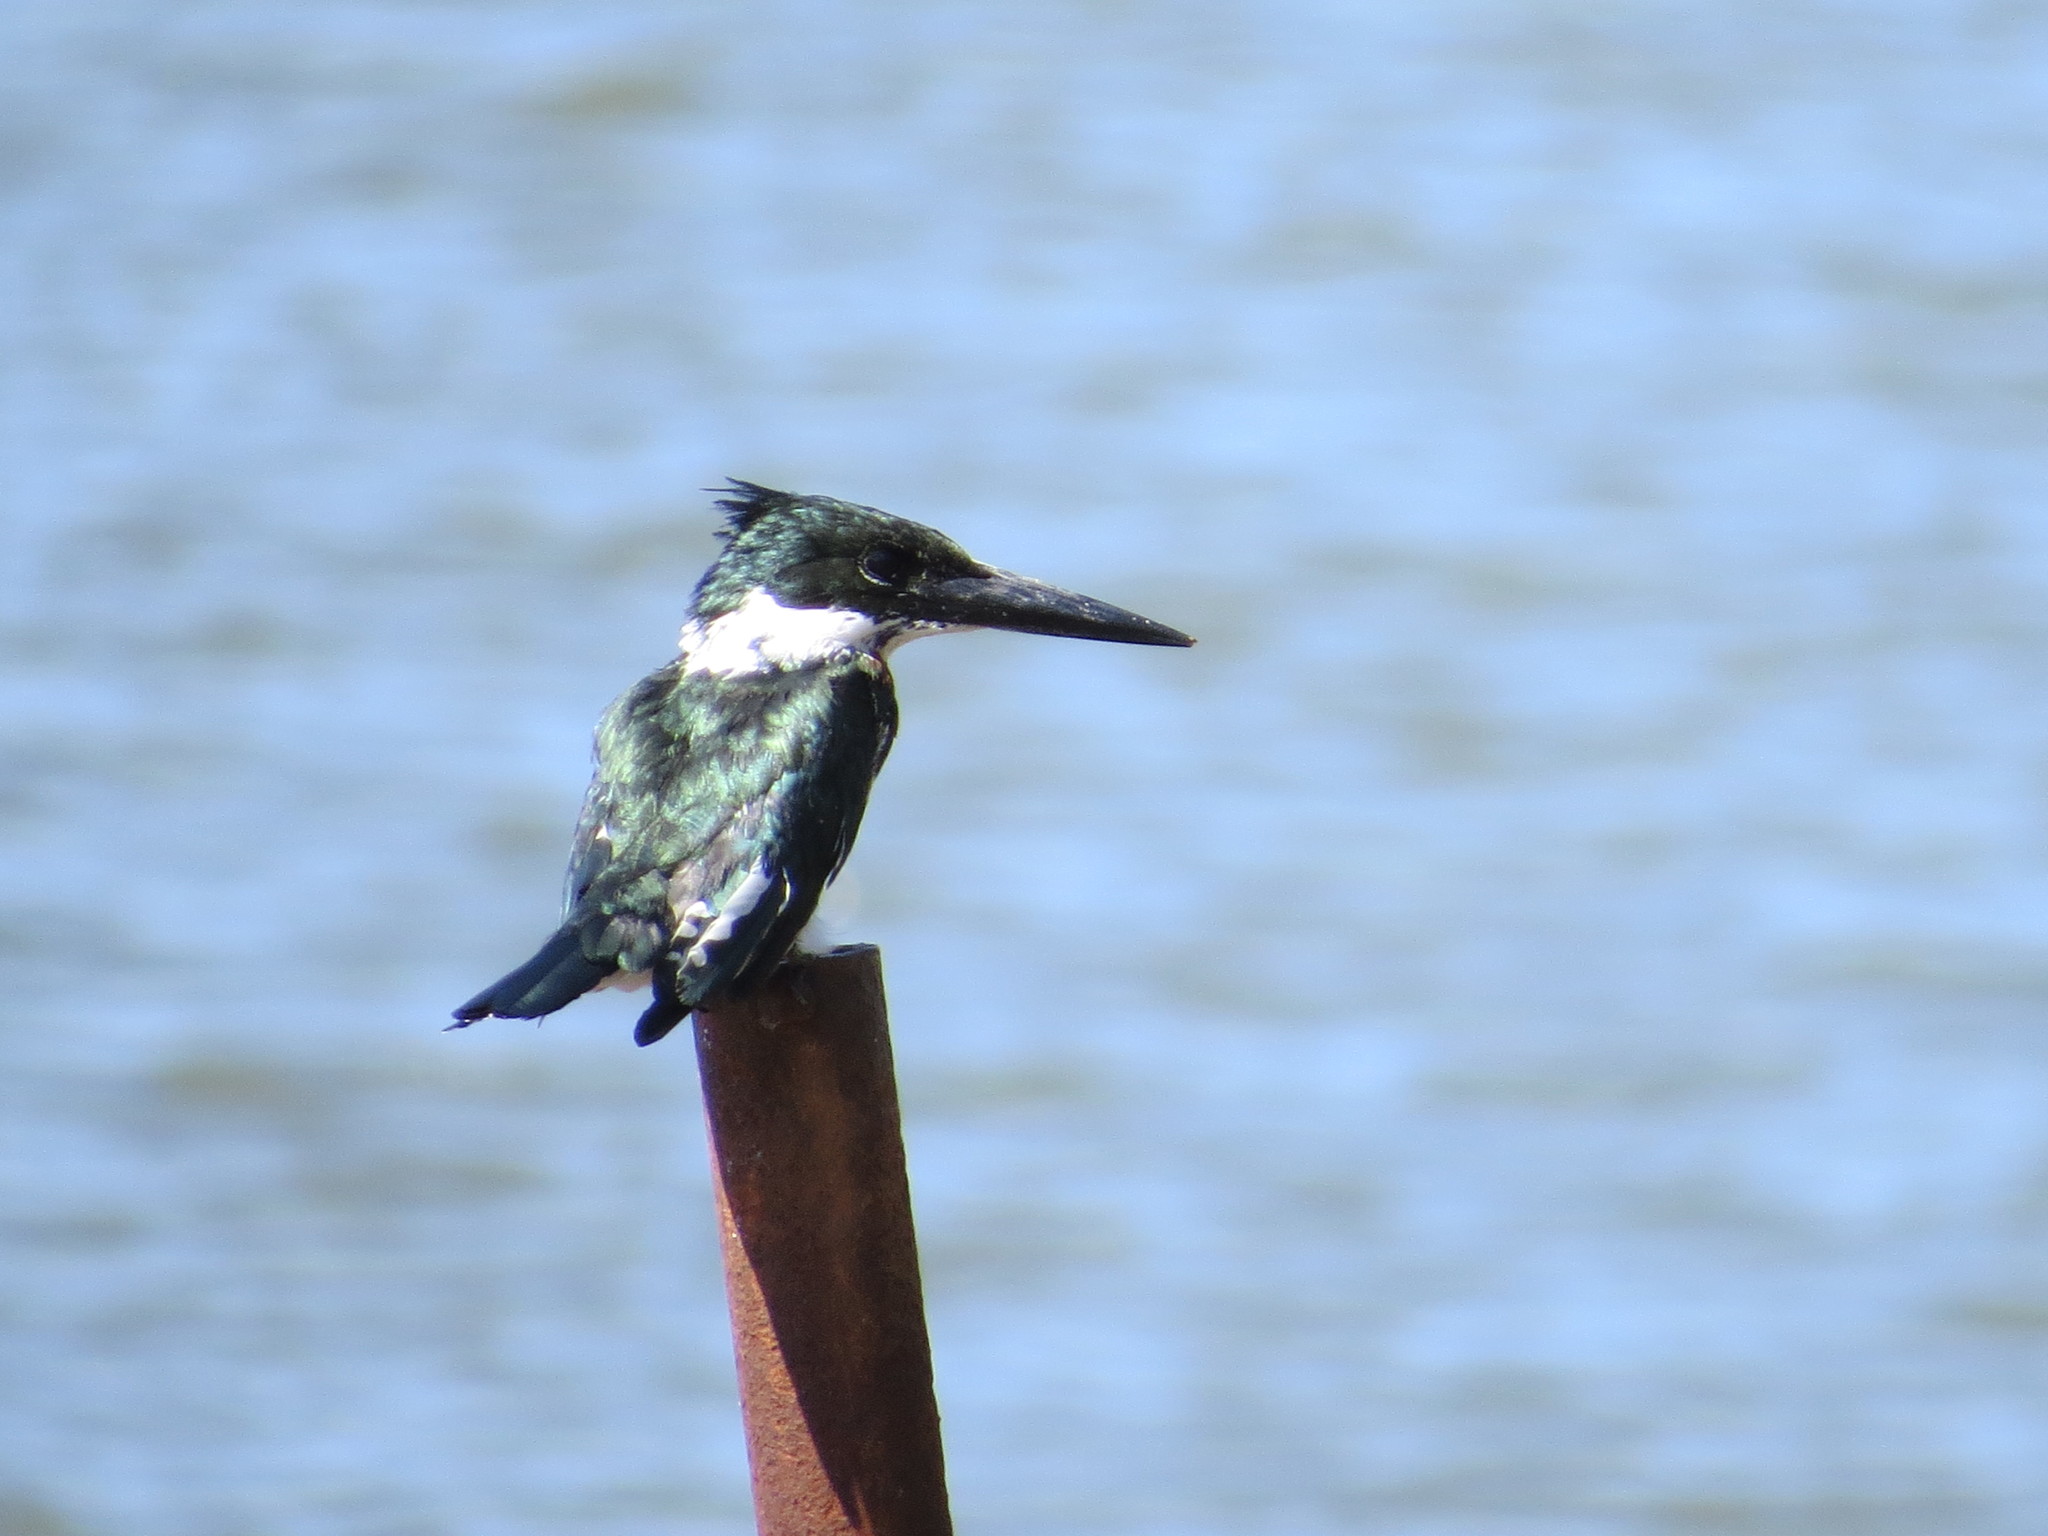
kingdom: Animalia
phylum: Chordata
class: Aves
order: Coraciiformes
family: Alcedinidae
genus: Chloroceryle
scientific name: Chloroceryle amazona
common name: Amazon kingfisher
